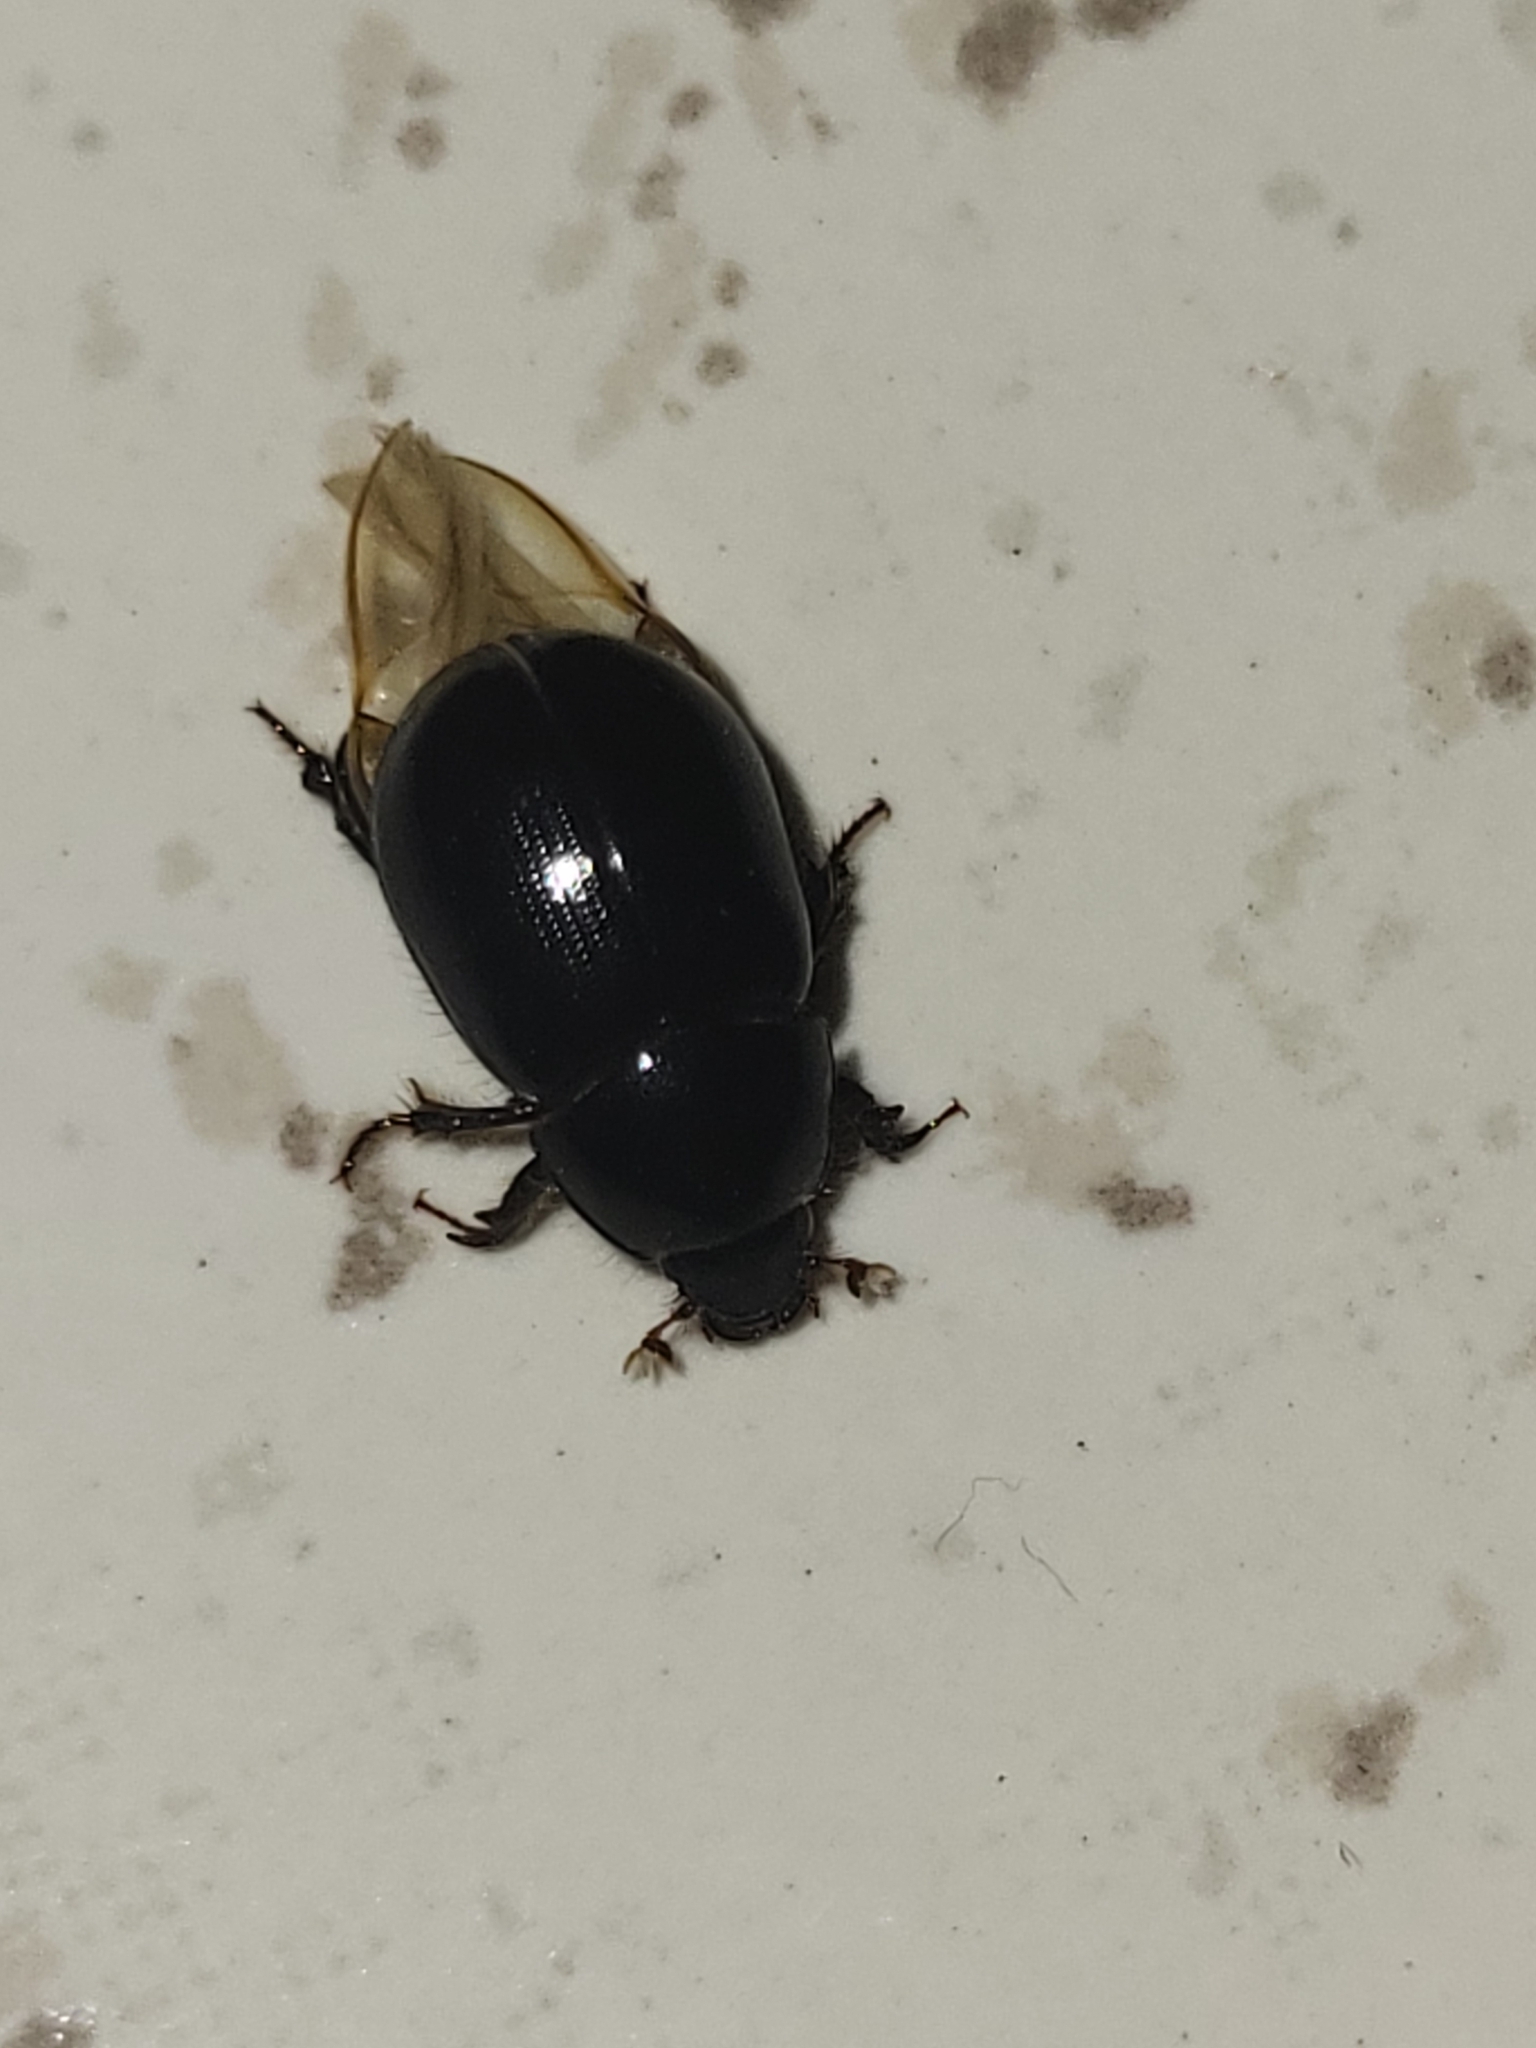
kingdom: Animalia
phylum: Arthropoda
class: Insecta
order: Coleoptera
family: Hybosoridae
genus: Hybosorus
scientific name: Hybosorus illigeri
